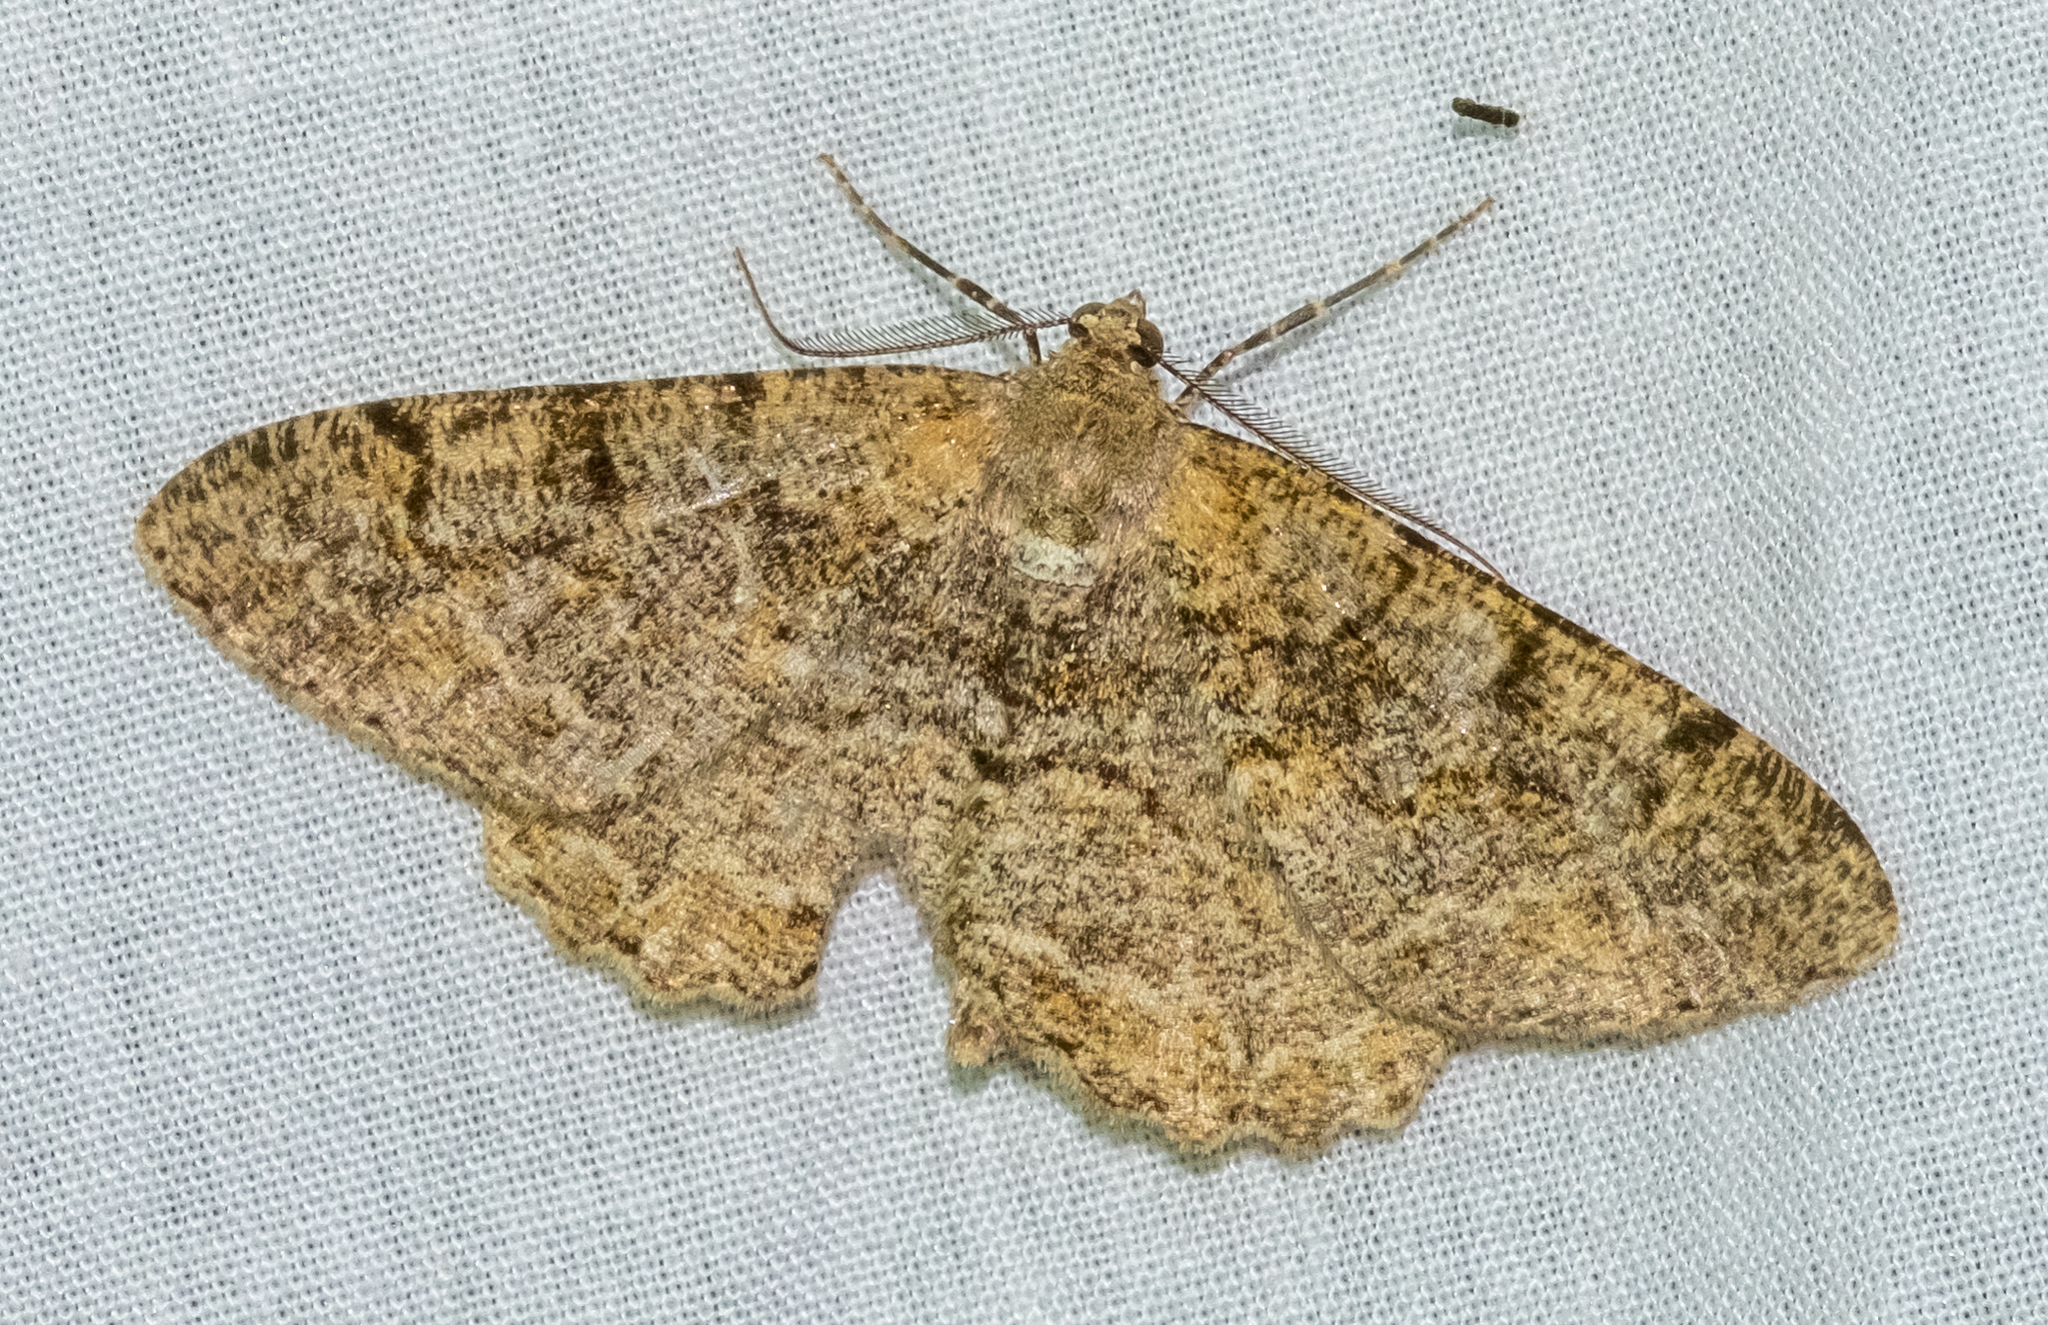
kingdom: Animalia
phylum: Arthropoda
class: Insecta
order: Lepidoptera
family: Geometridae
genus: Alcis
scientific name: Alcis repandata
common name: Mottled beauty
